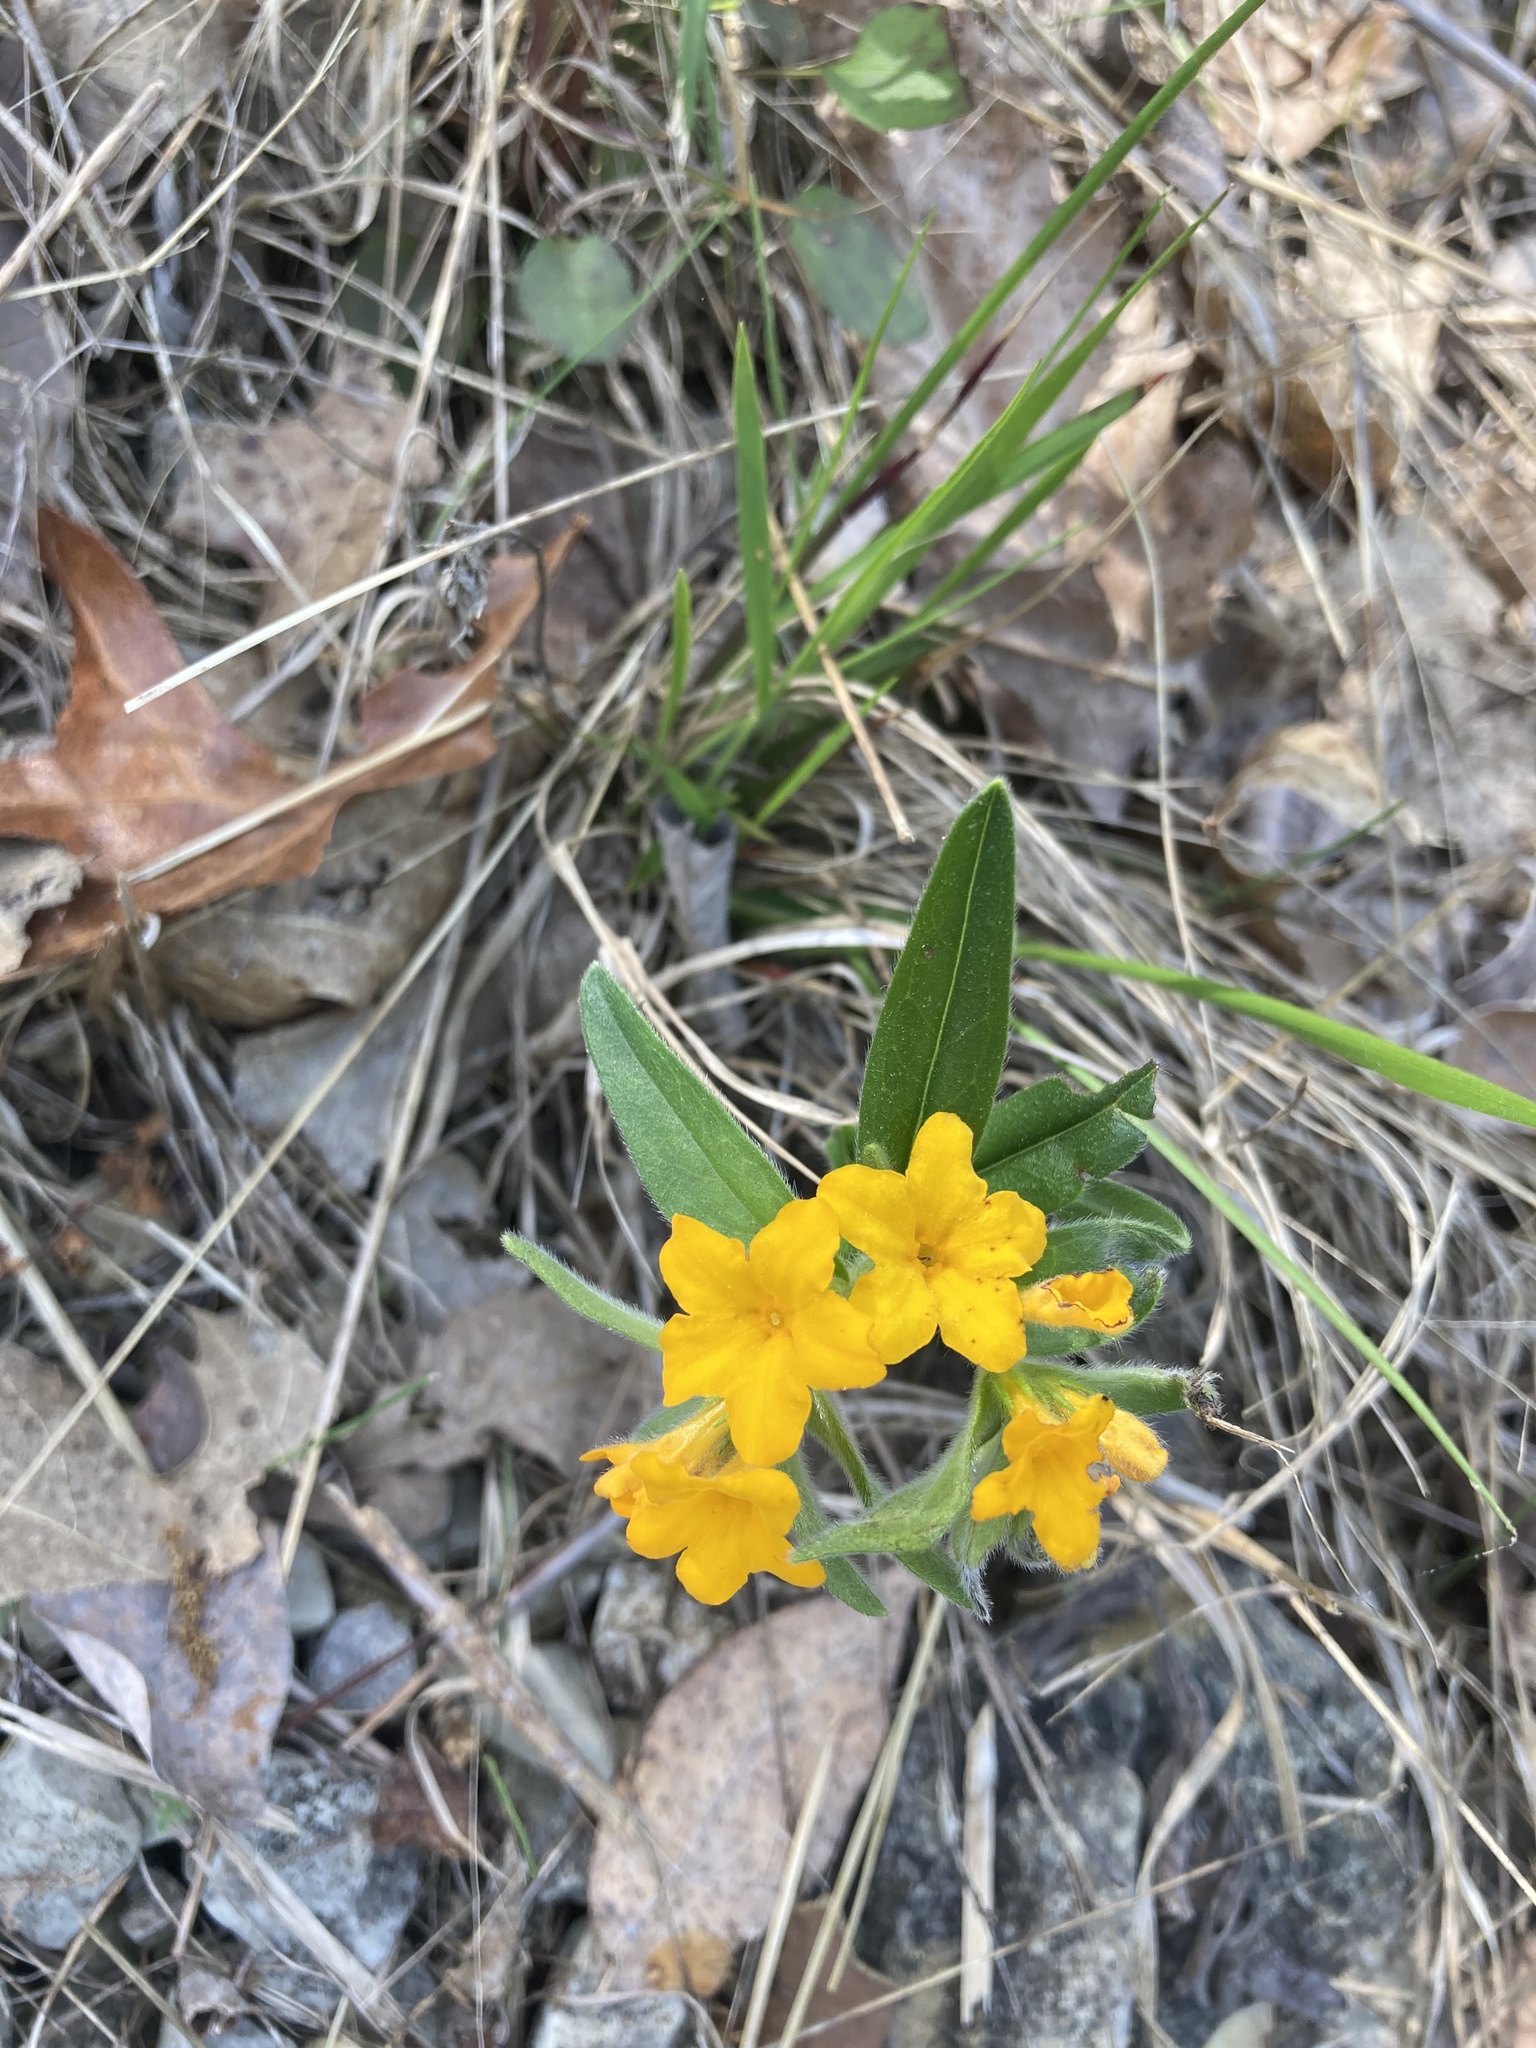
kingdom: Plantae
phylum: Tracheophyta
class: Magnoliopsida
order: Boraginales
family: Boraginaceae
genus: Lithospermum
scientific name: Lithospermum canescens
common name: Hoary puccoon
